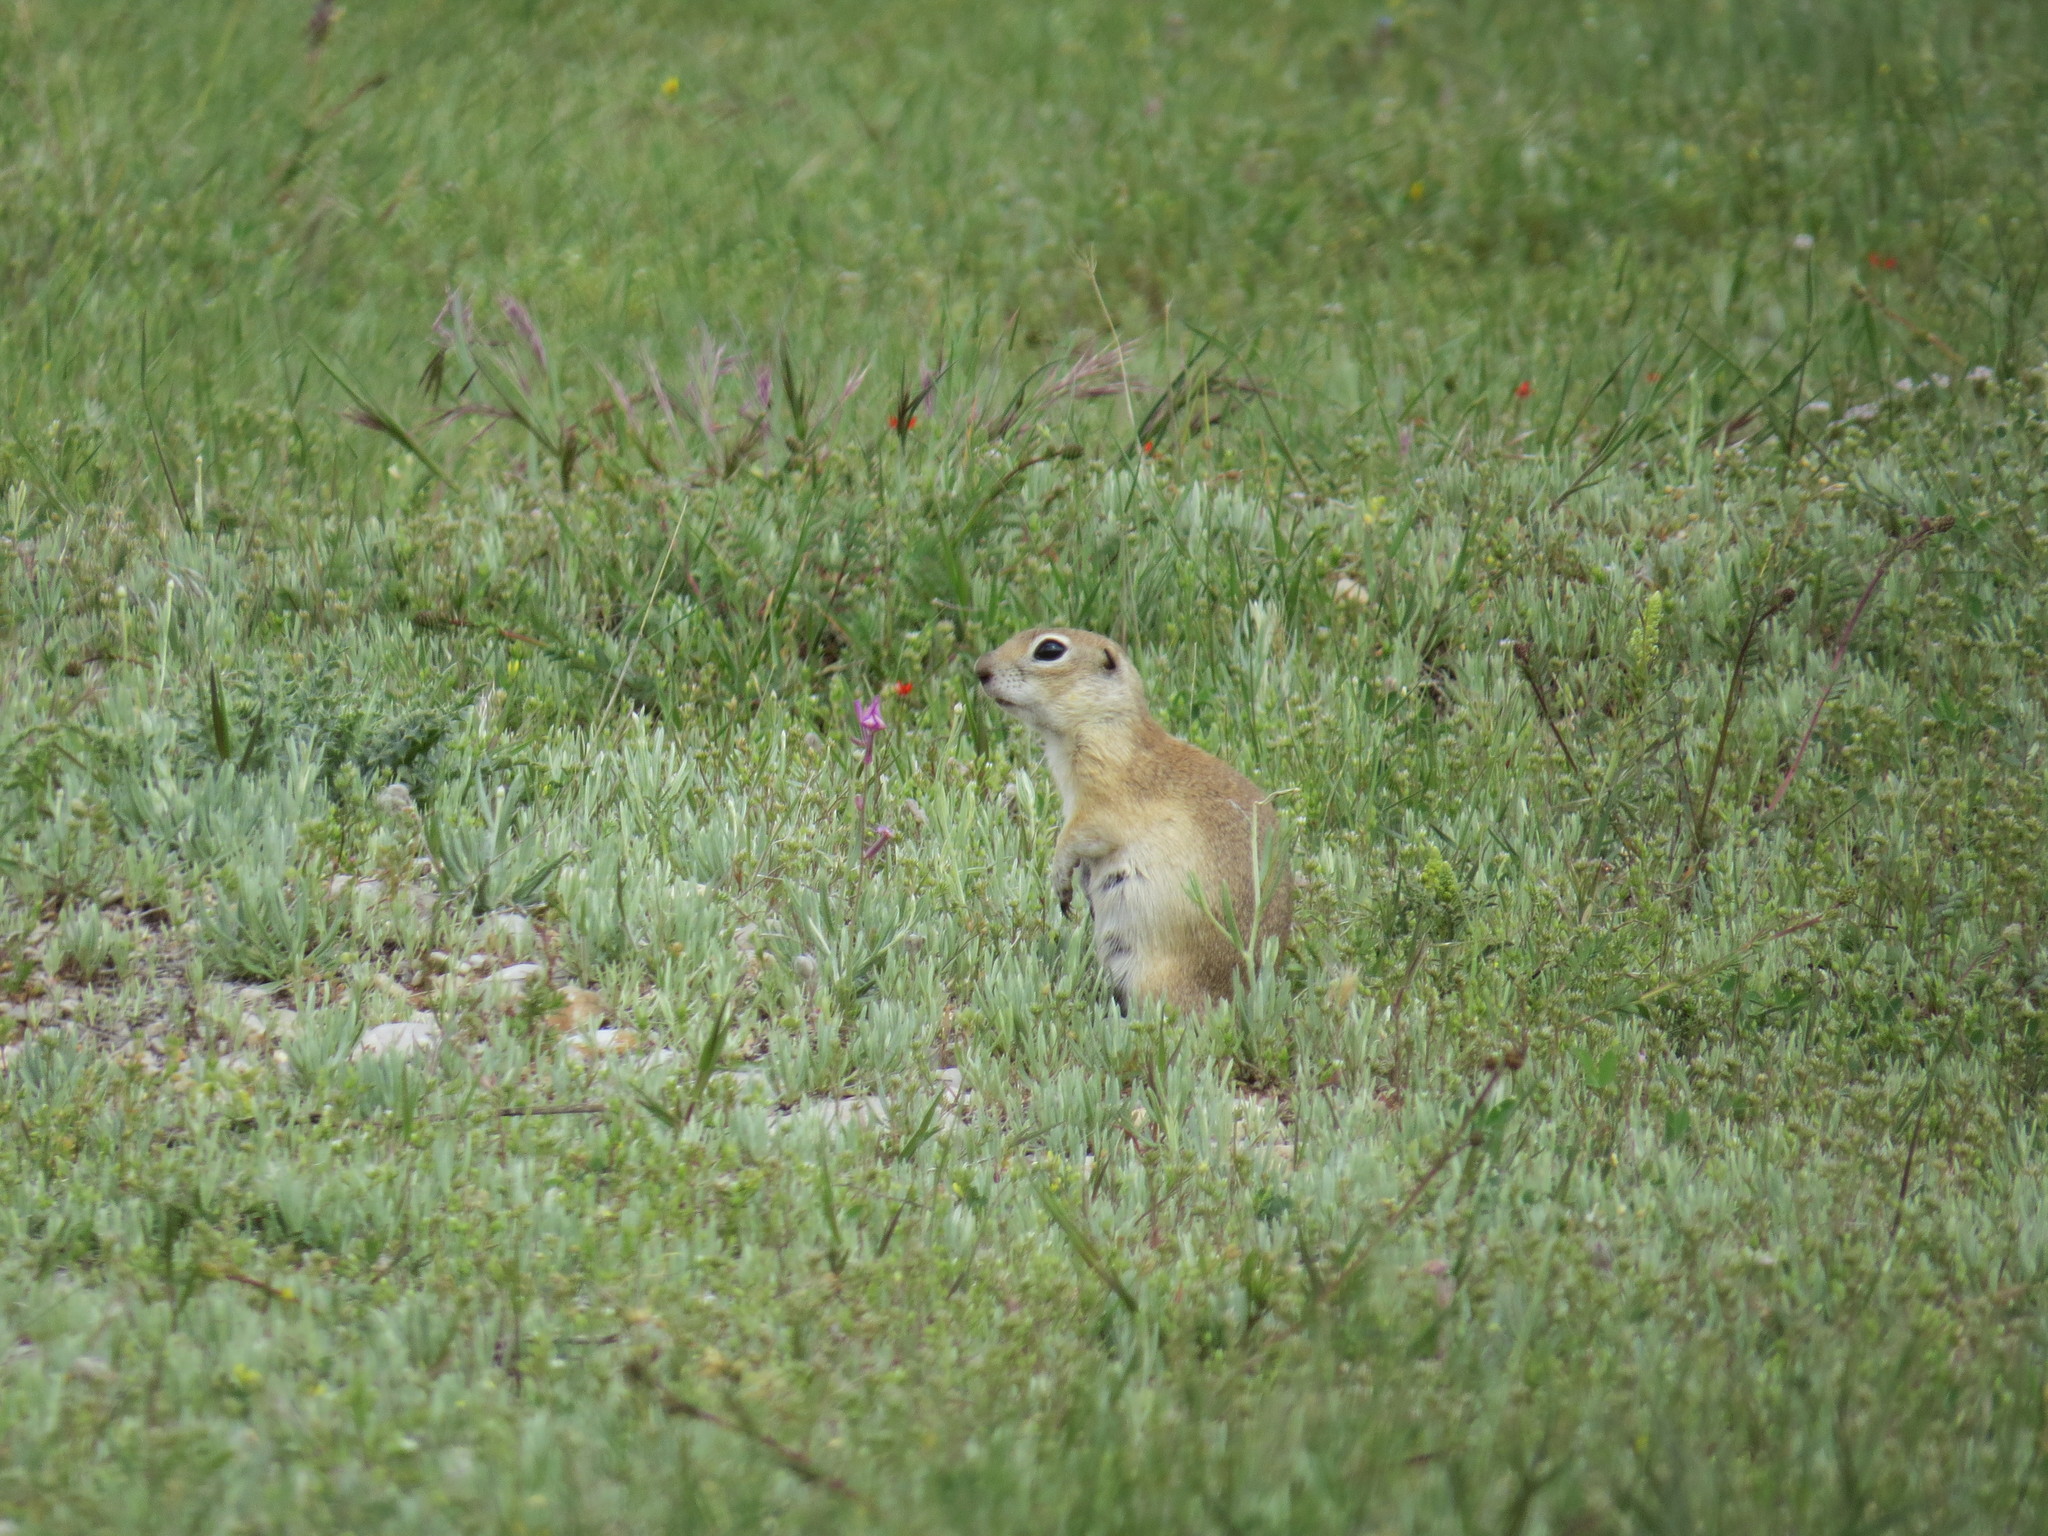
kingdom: Animalia
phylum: Chordata
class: Mammalia
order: Rodentia
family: Sciuridae
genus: Spermophilus
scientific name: Spermophilus xanthoprymnus
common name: Asia minor ground squirrel
